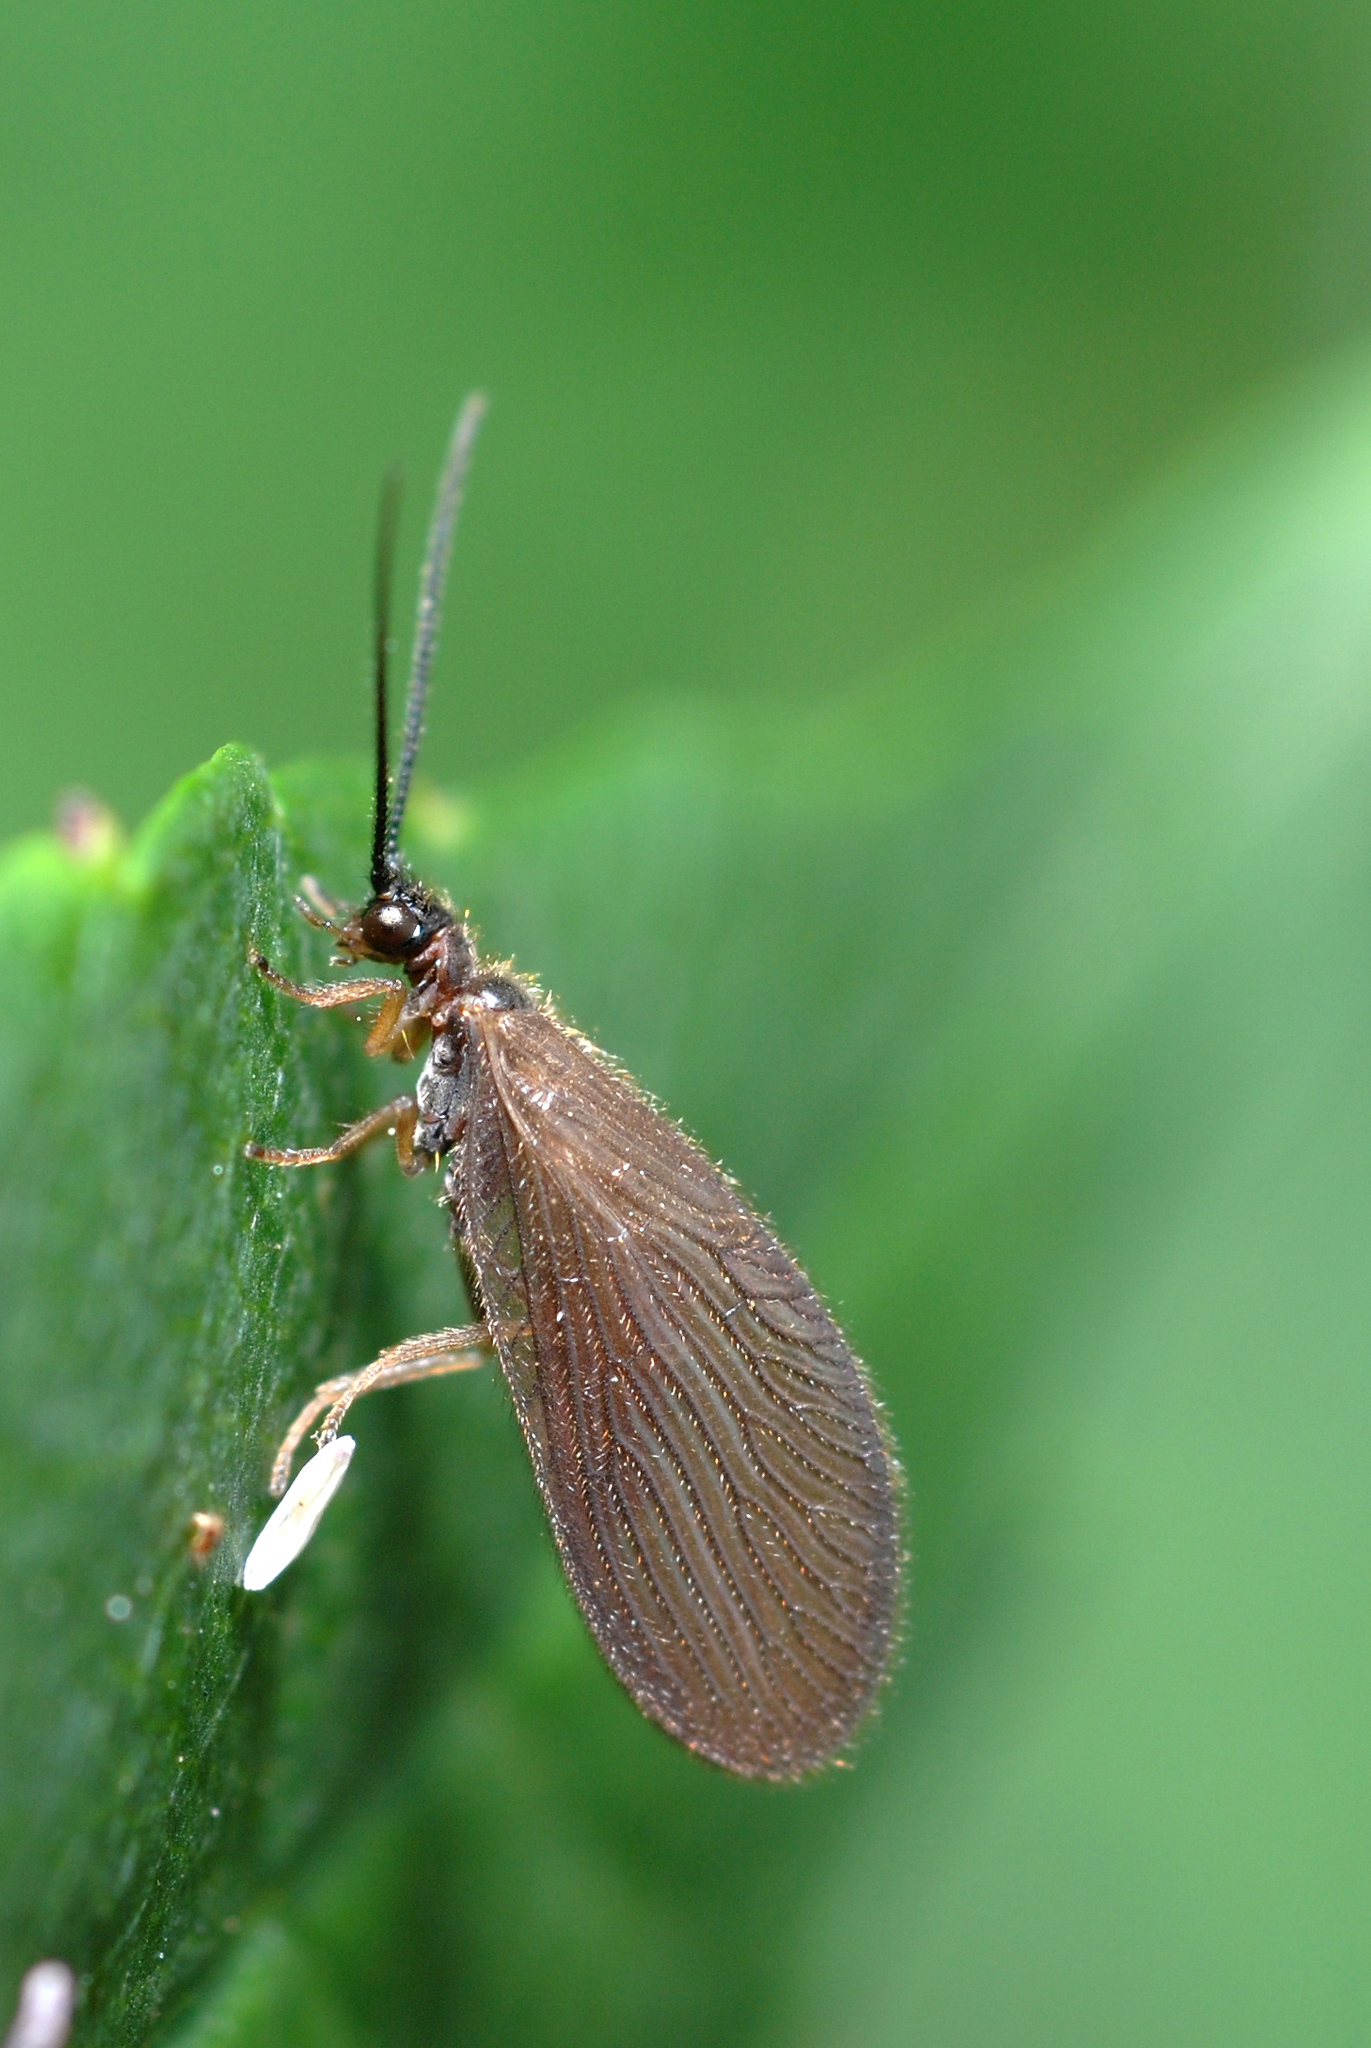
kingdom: Animalia
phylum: Arthropoda
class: Insecta
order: Neuroptera
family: Sisyridae
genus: Sisyra
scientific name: Sisyra nigra
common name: Black spongillafly
